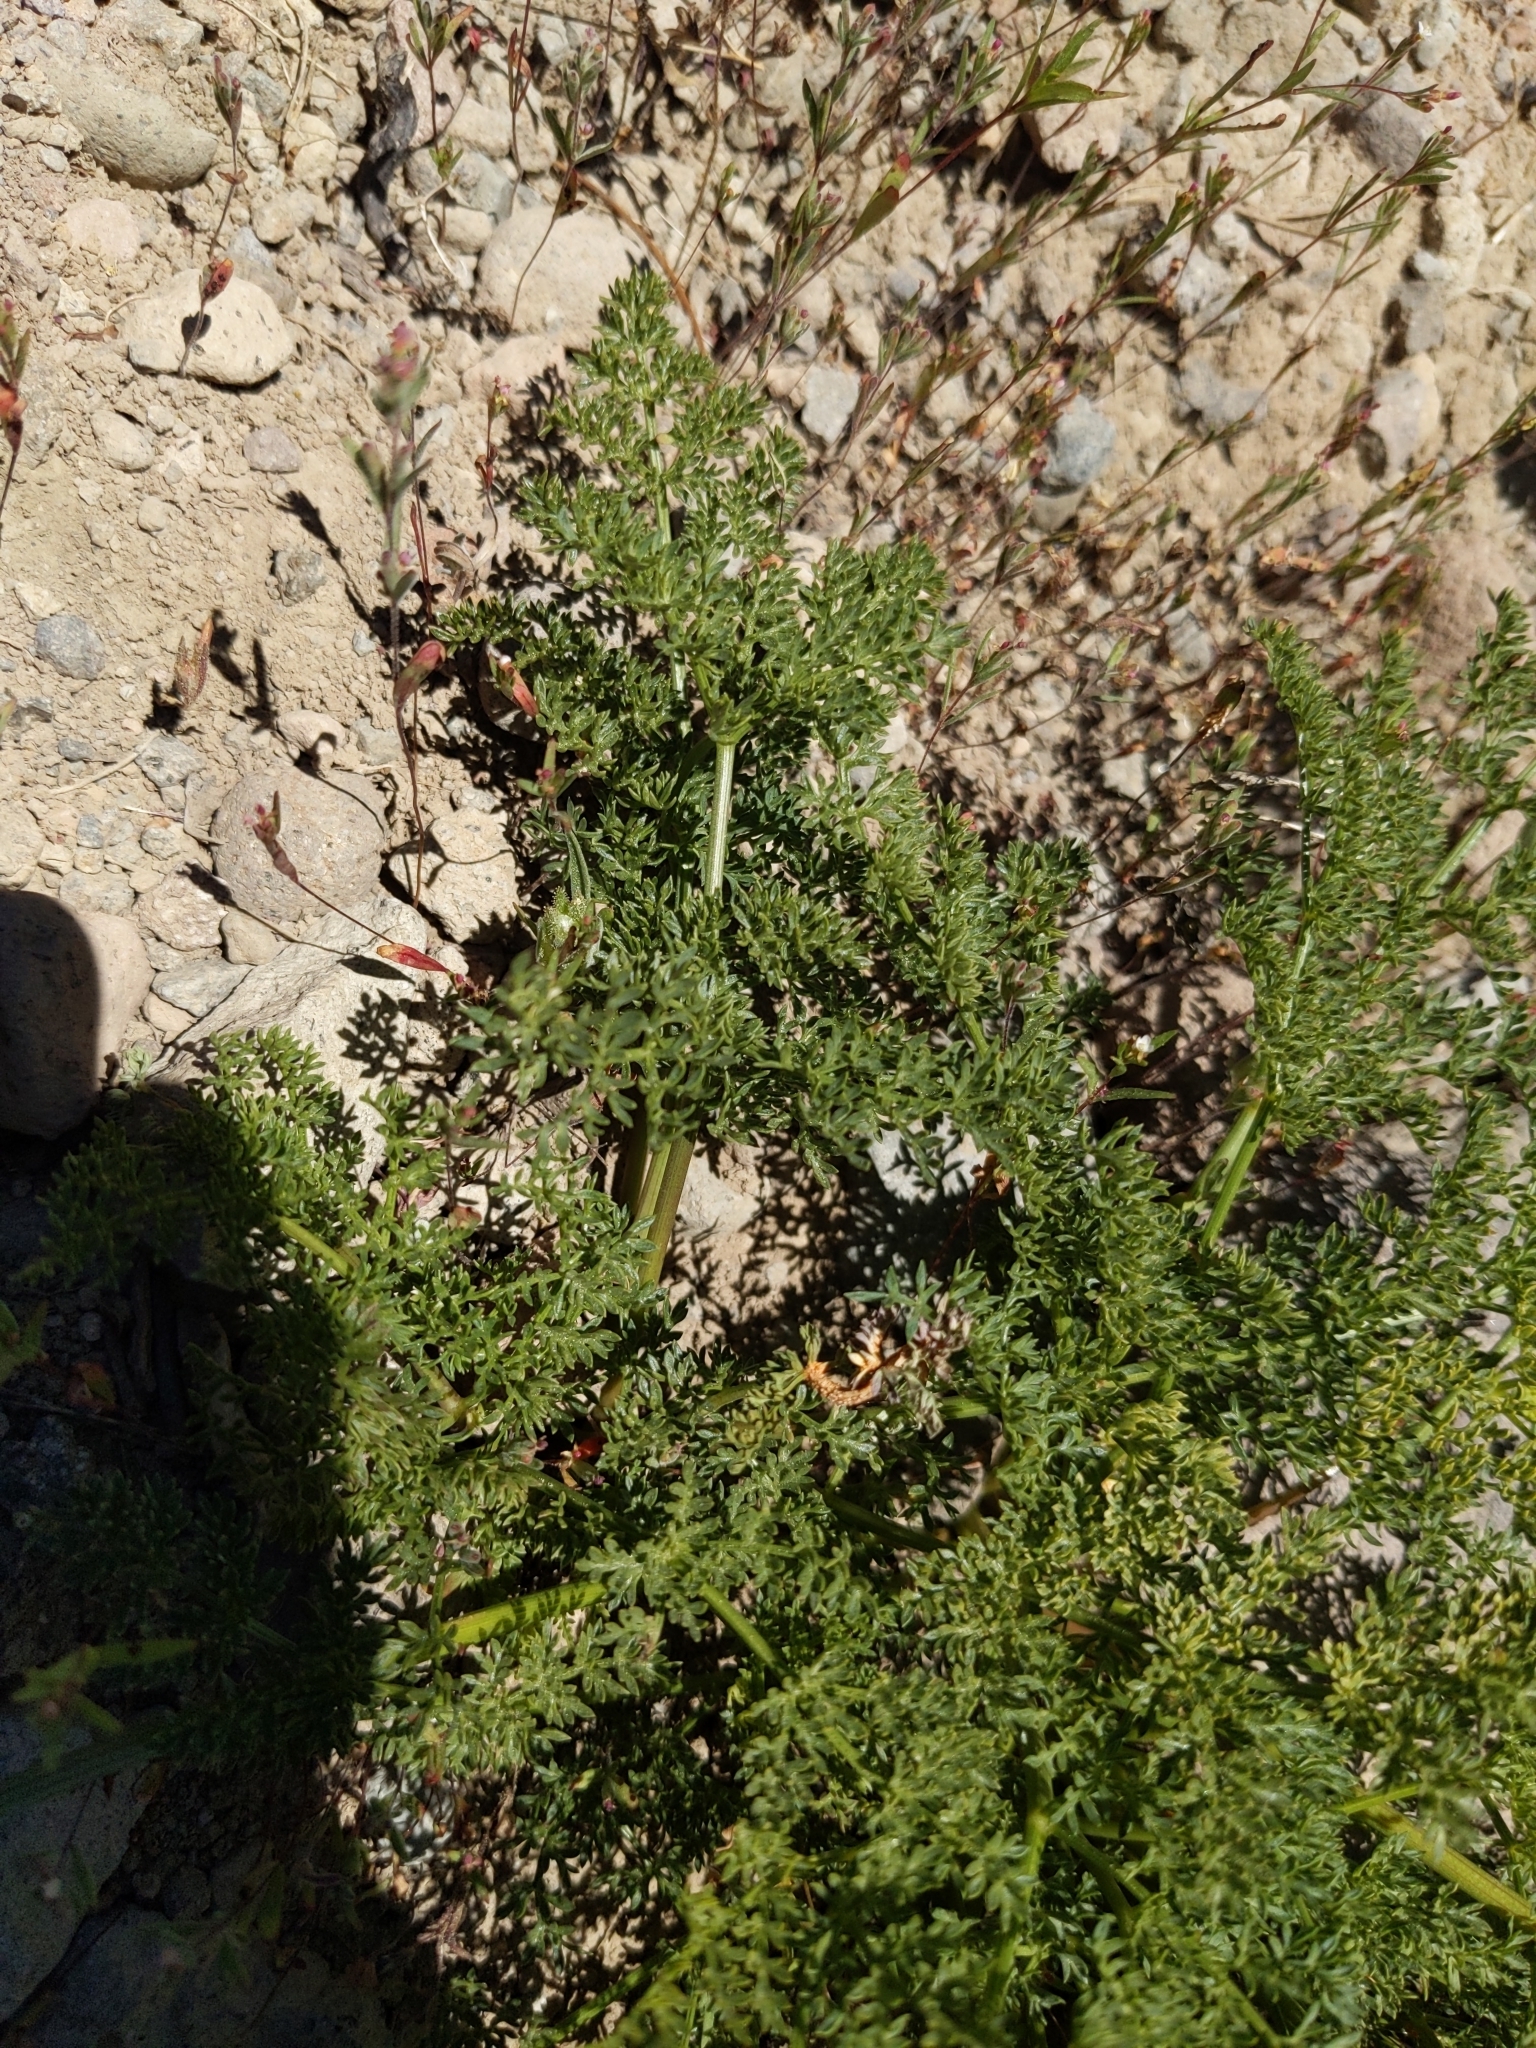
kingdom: Plantae
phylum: Tracheophyta
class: Magnoliopsida
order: Apiales
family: Apiaceae
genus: Pteryxia
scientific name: Pteryxia terebinthina
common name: Turpentine wavewing
